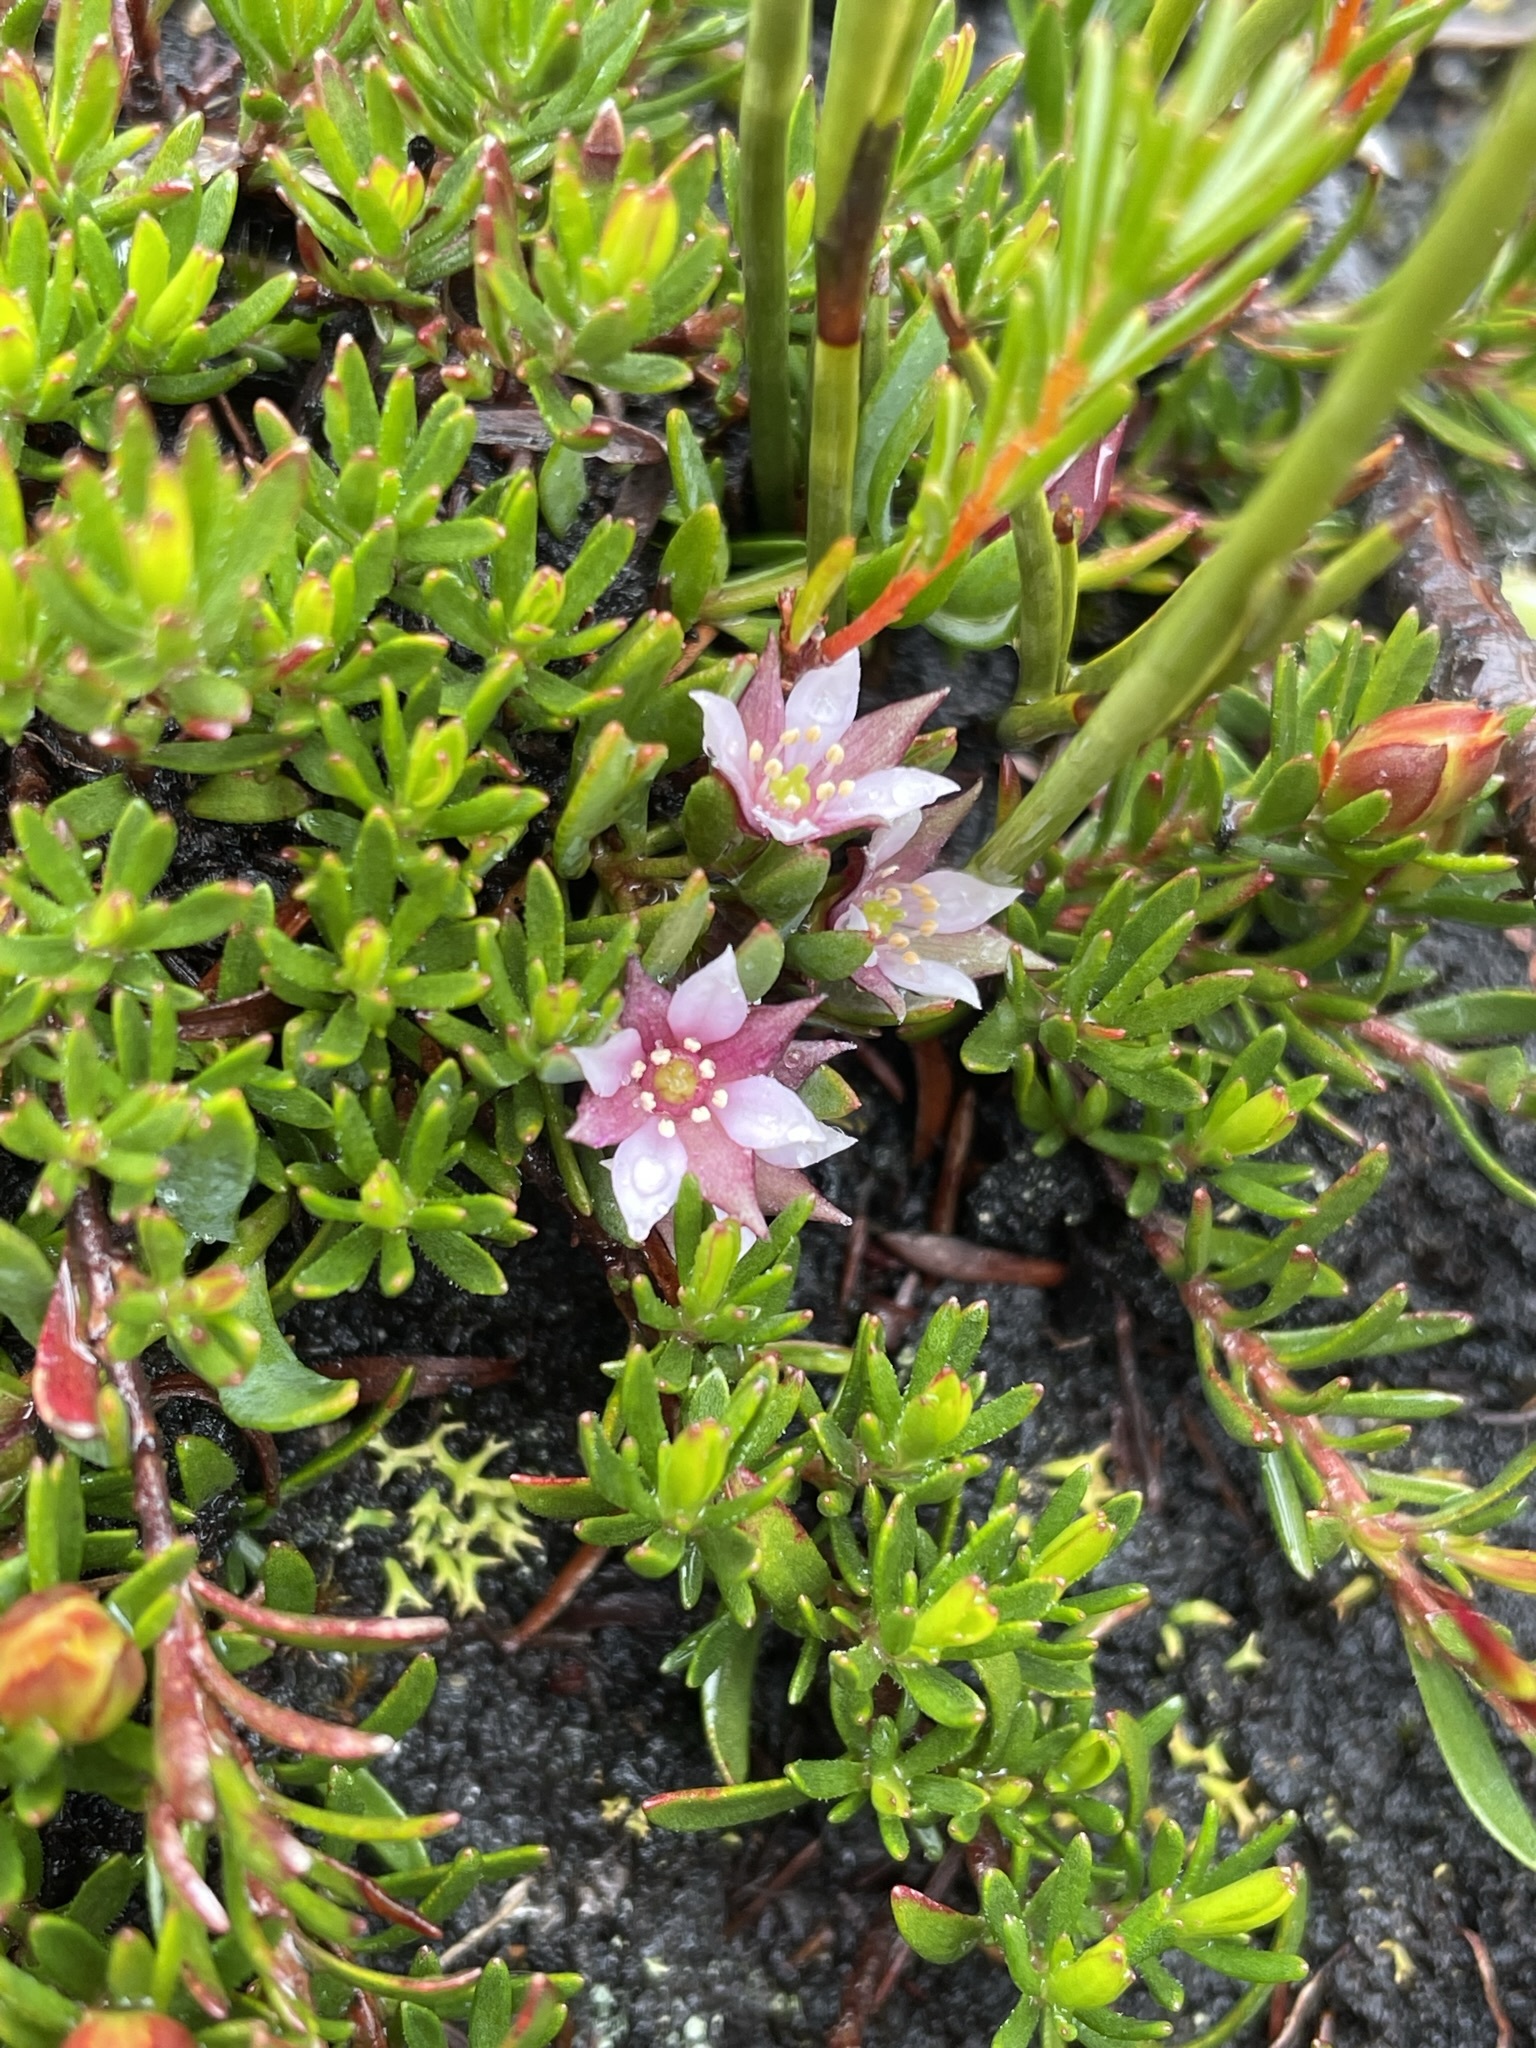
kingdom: Plantae
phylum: Tracheophyta
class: Magnoliopsida
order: Sapindales
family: Rutaceae
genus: Boronia
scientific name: Boronia parviflora
